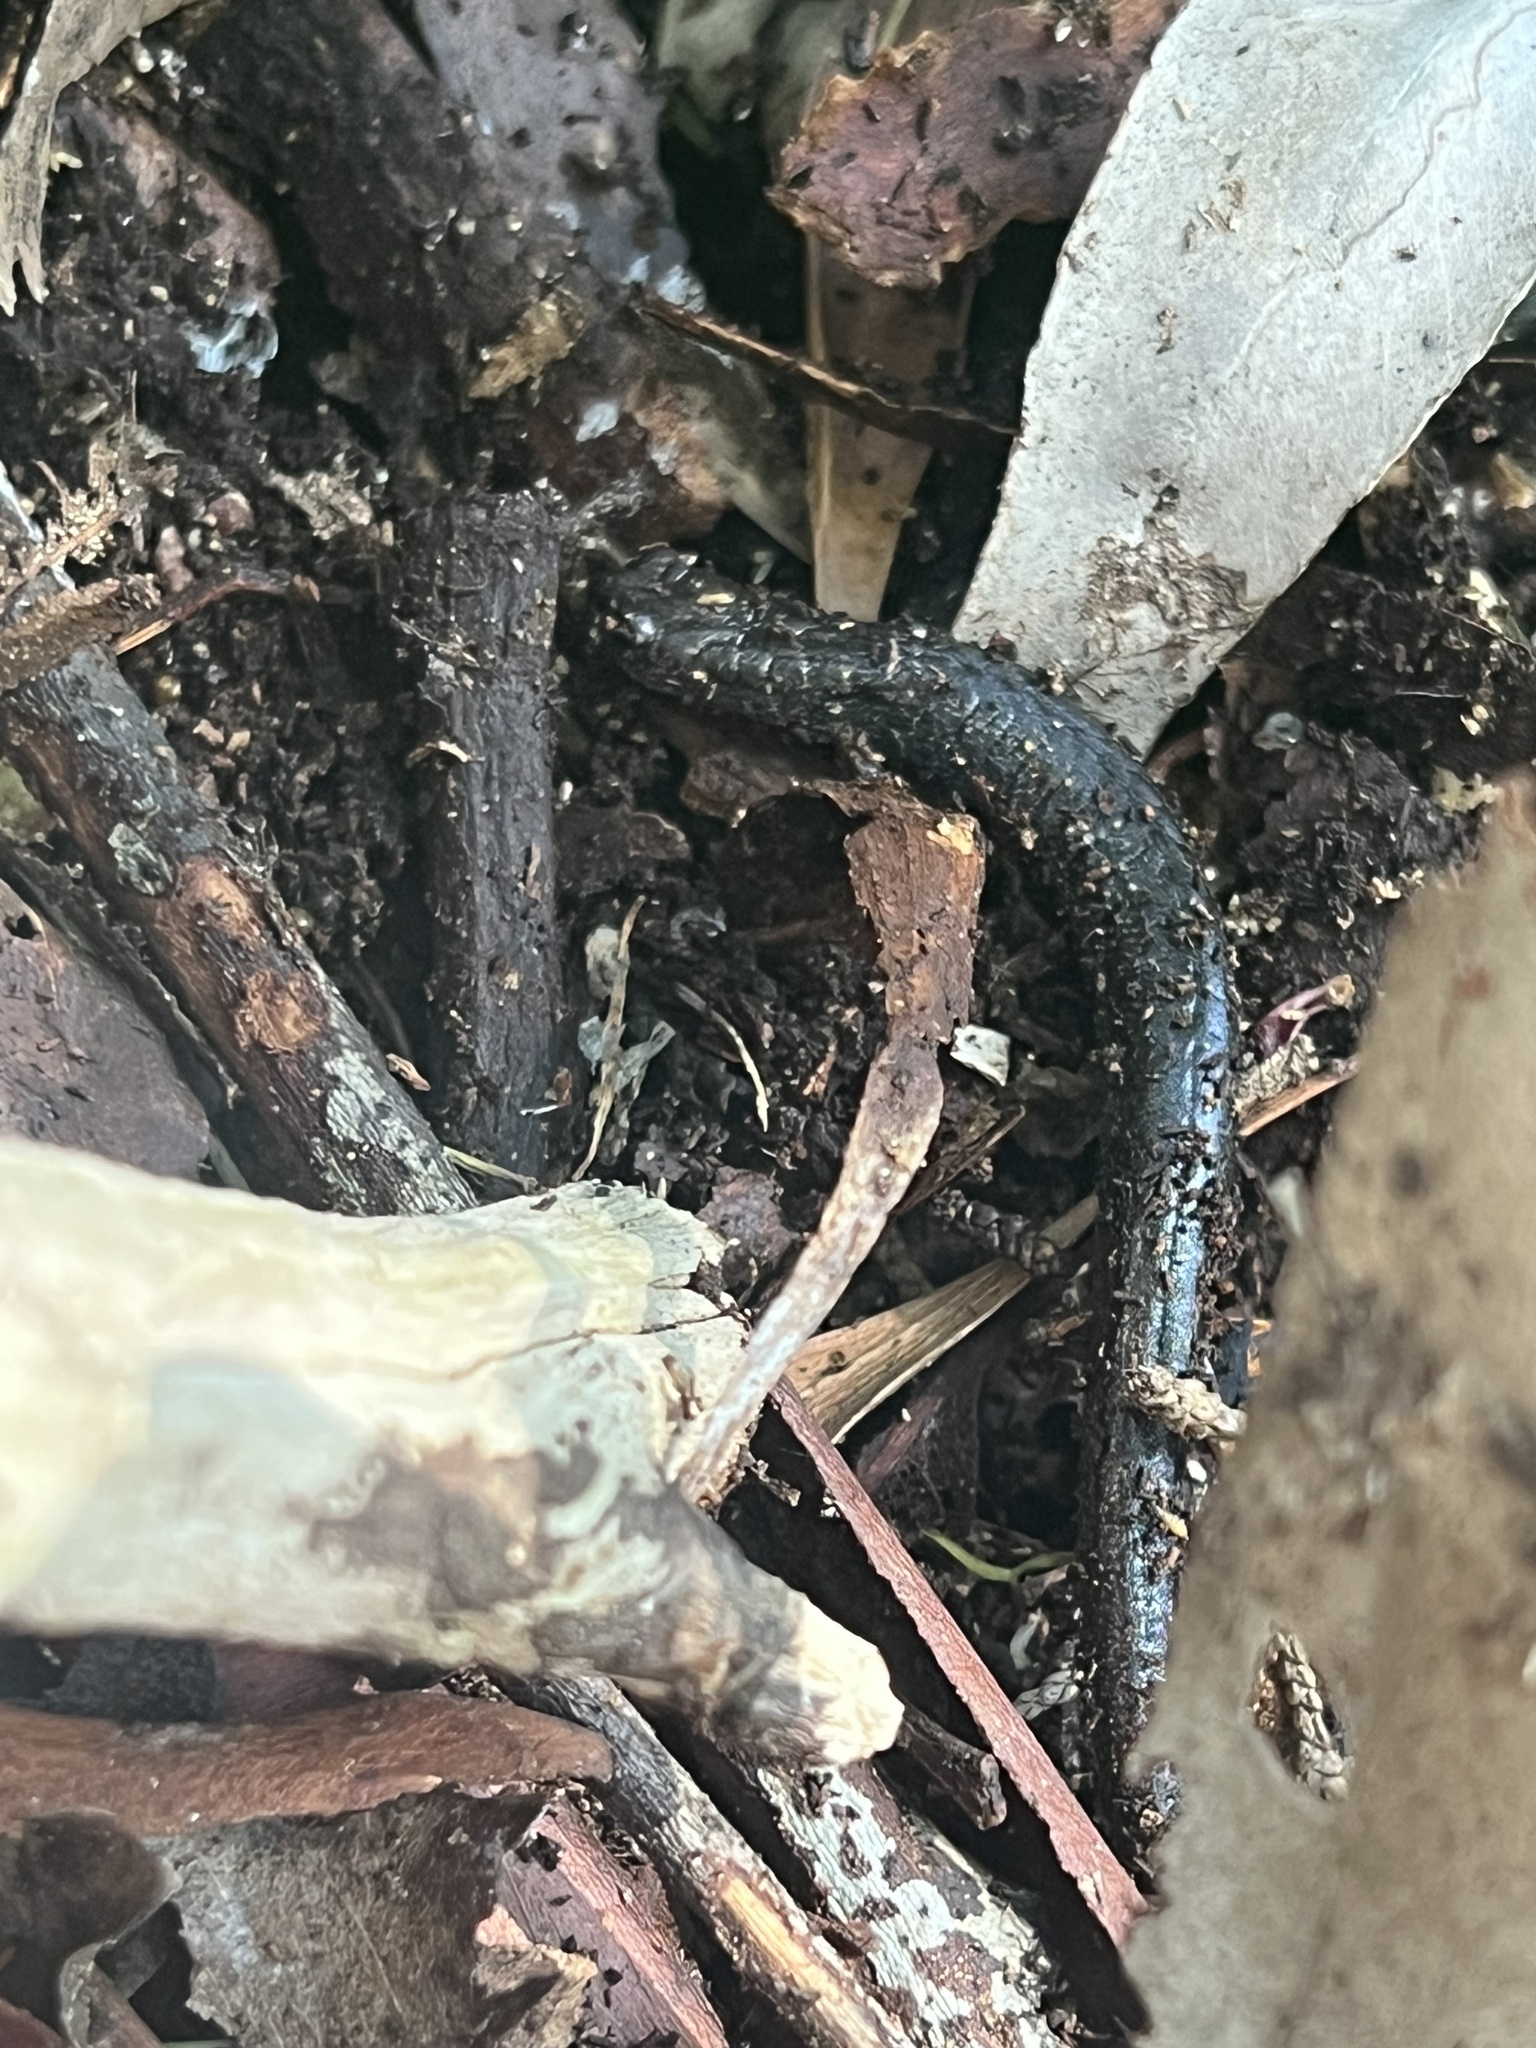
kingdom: Animalia
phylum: Chordata
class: Amphibia
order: Caudata
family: Plethodontidae
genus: Batrachoseps
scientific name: Batrachoseps attenuatus
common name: California slender salamander
